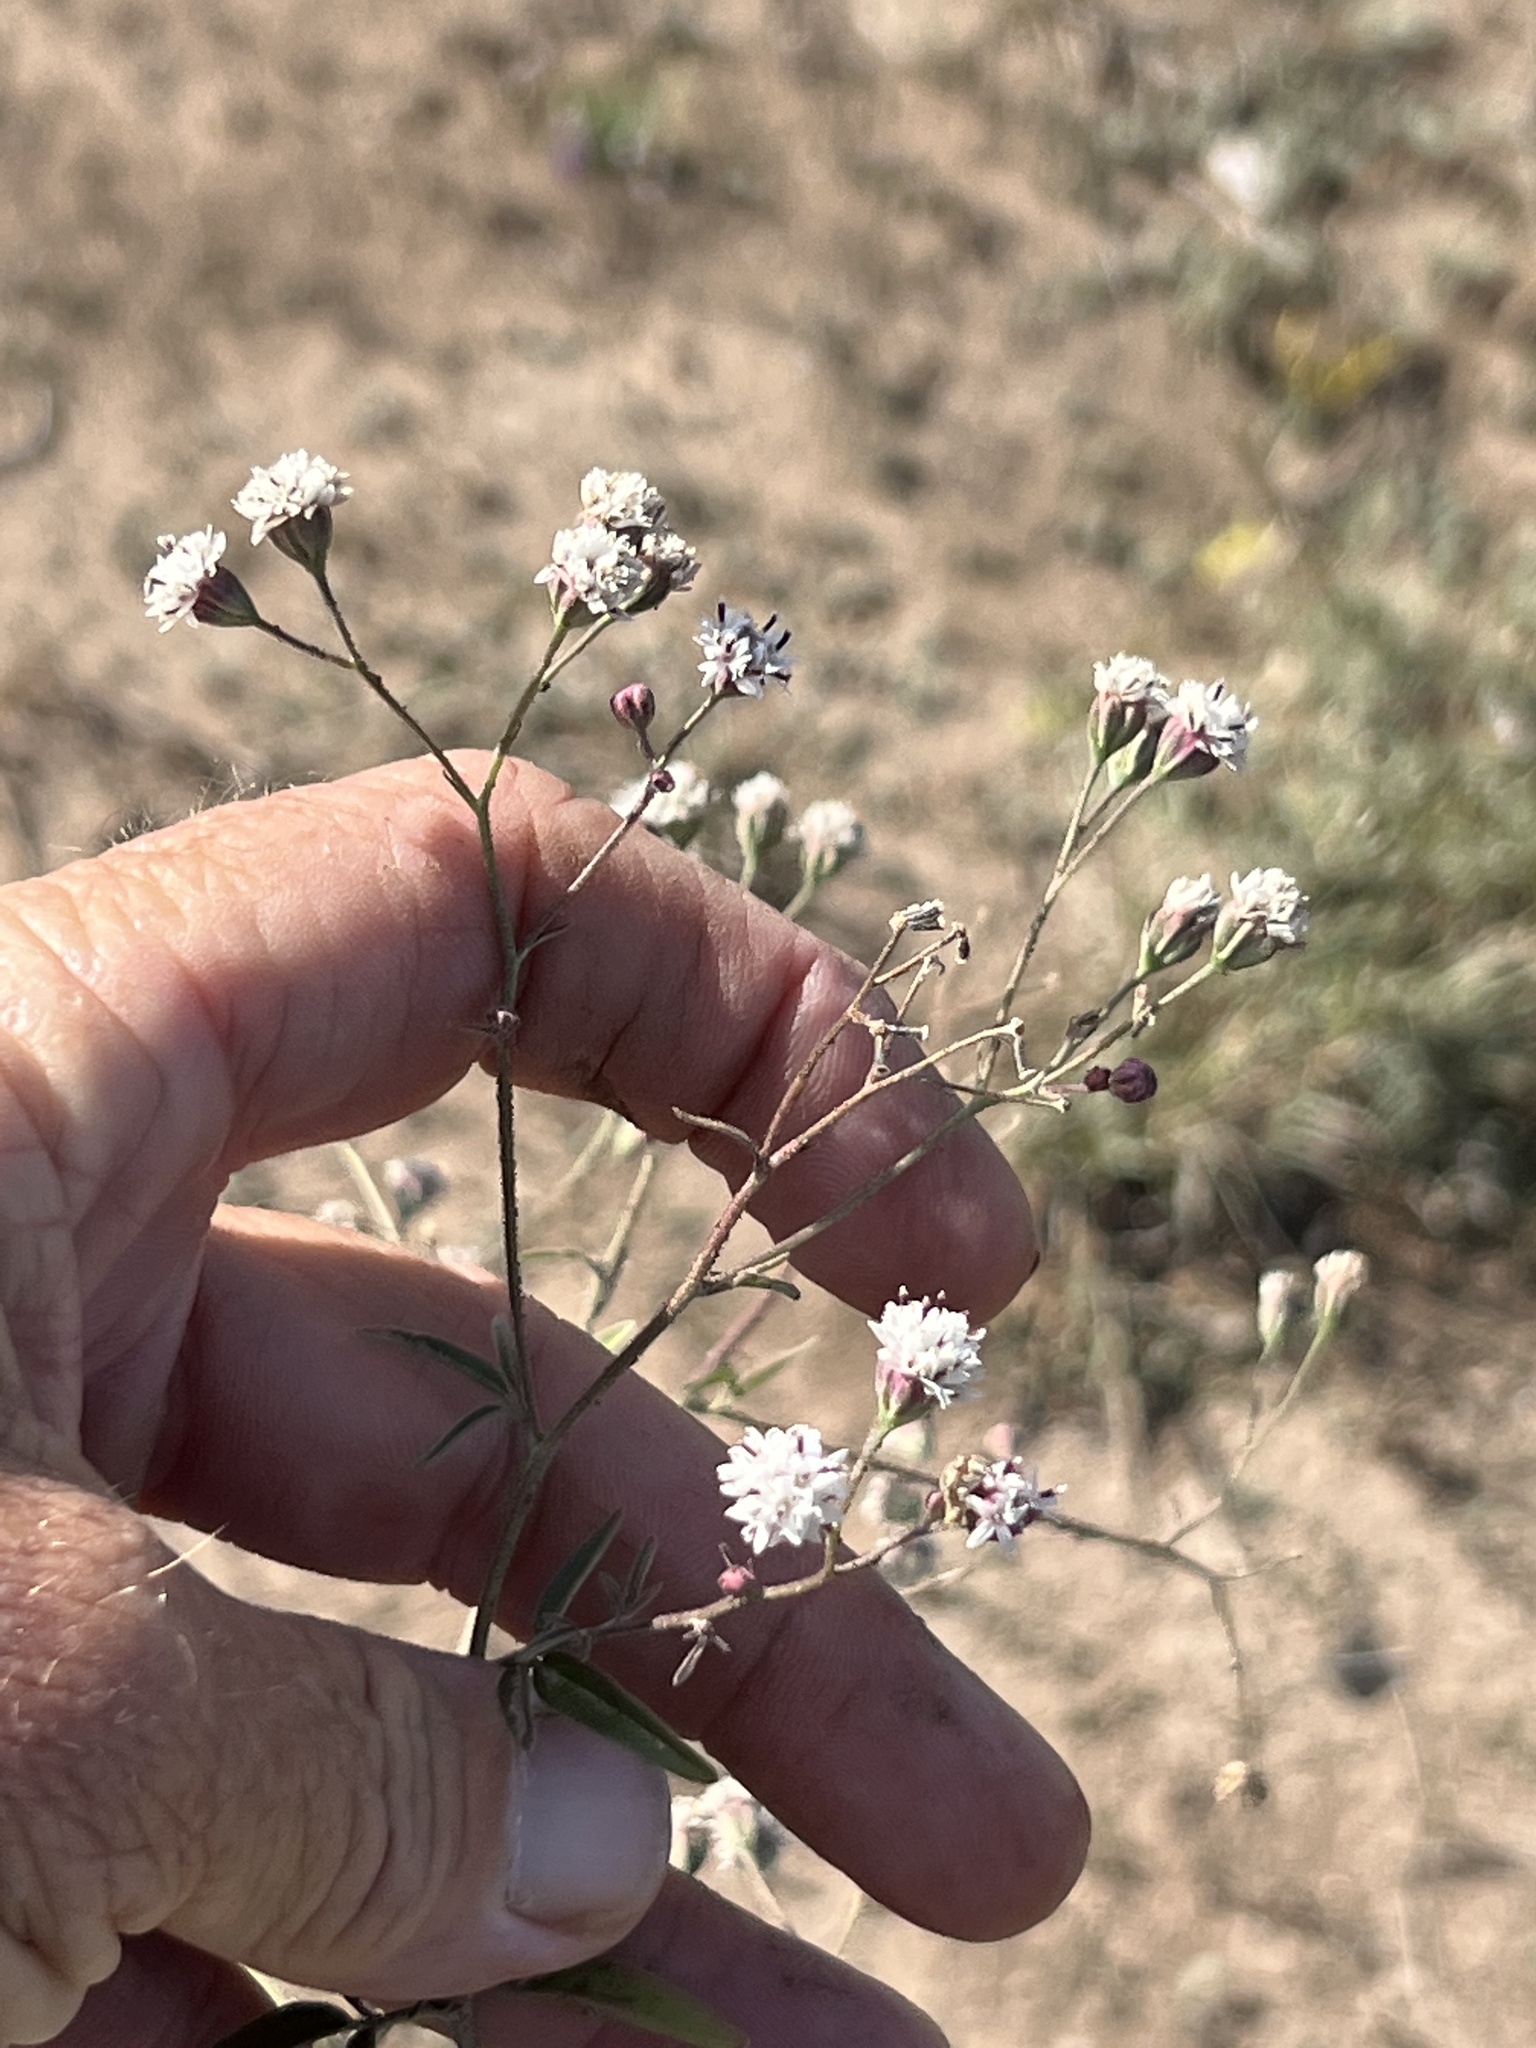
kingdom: Plantae
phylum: Tracheophyta
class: Magnoliopsida
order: Asterales
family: Asteraceae
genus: Florestina
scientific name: Florestina tripteris
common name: Sticky florestina
